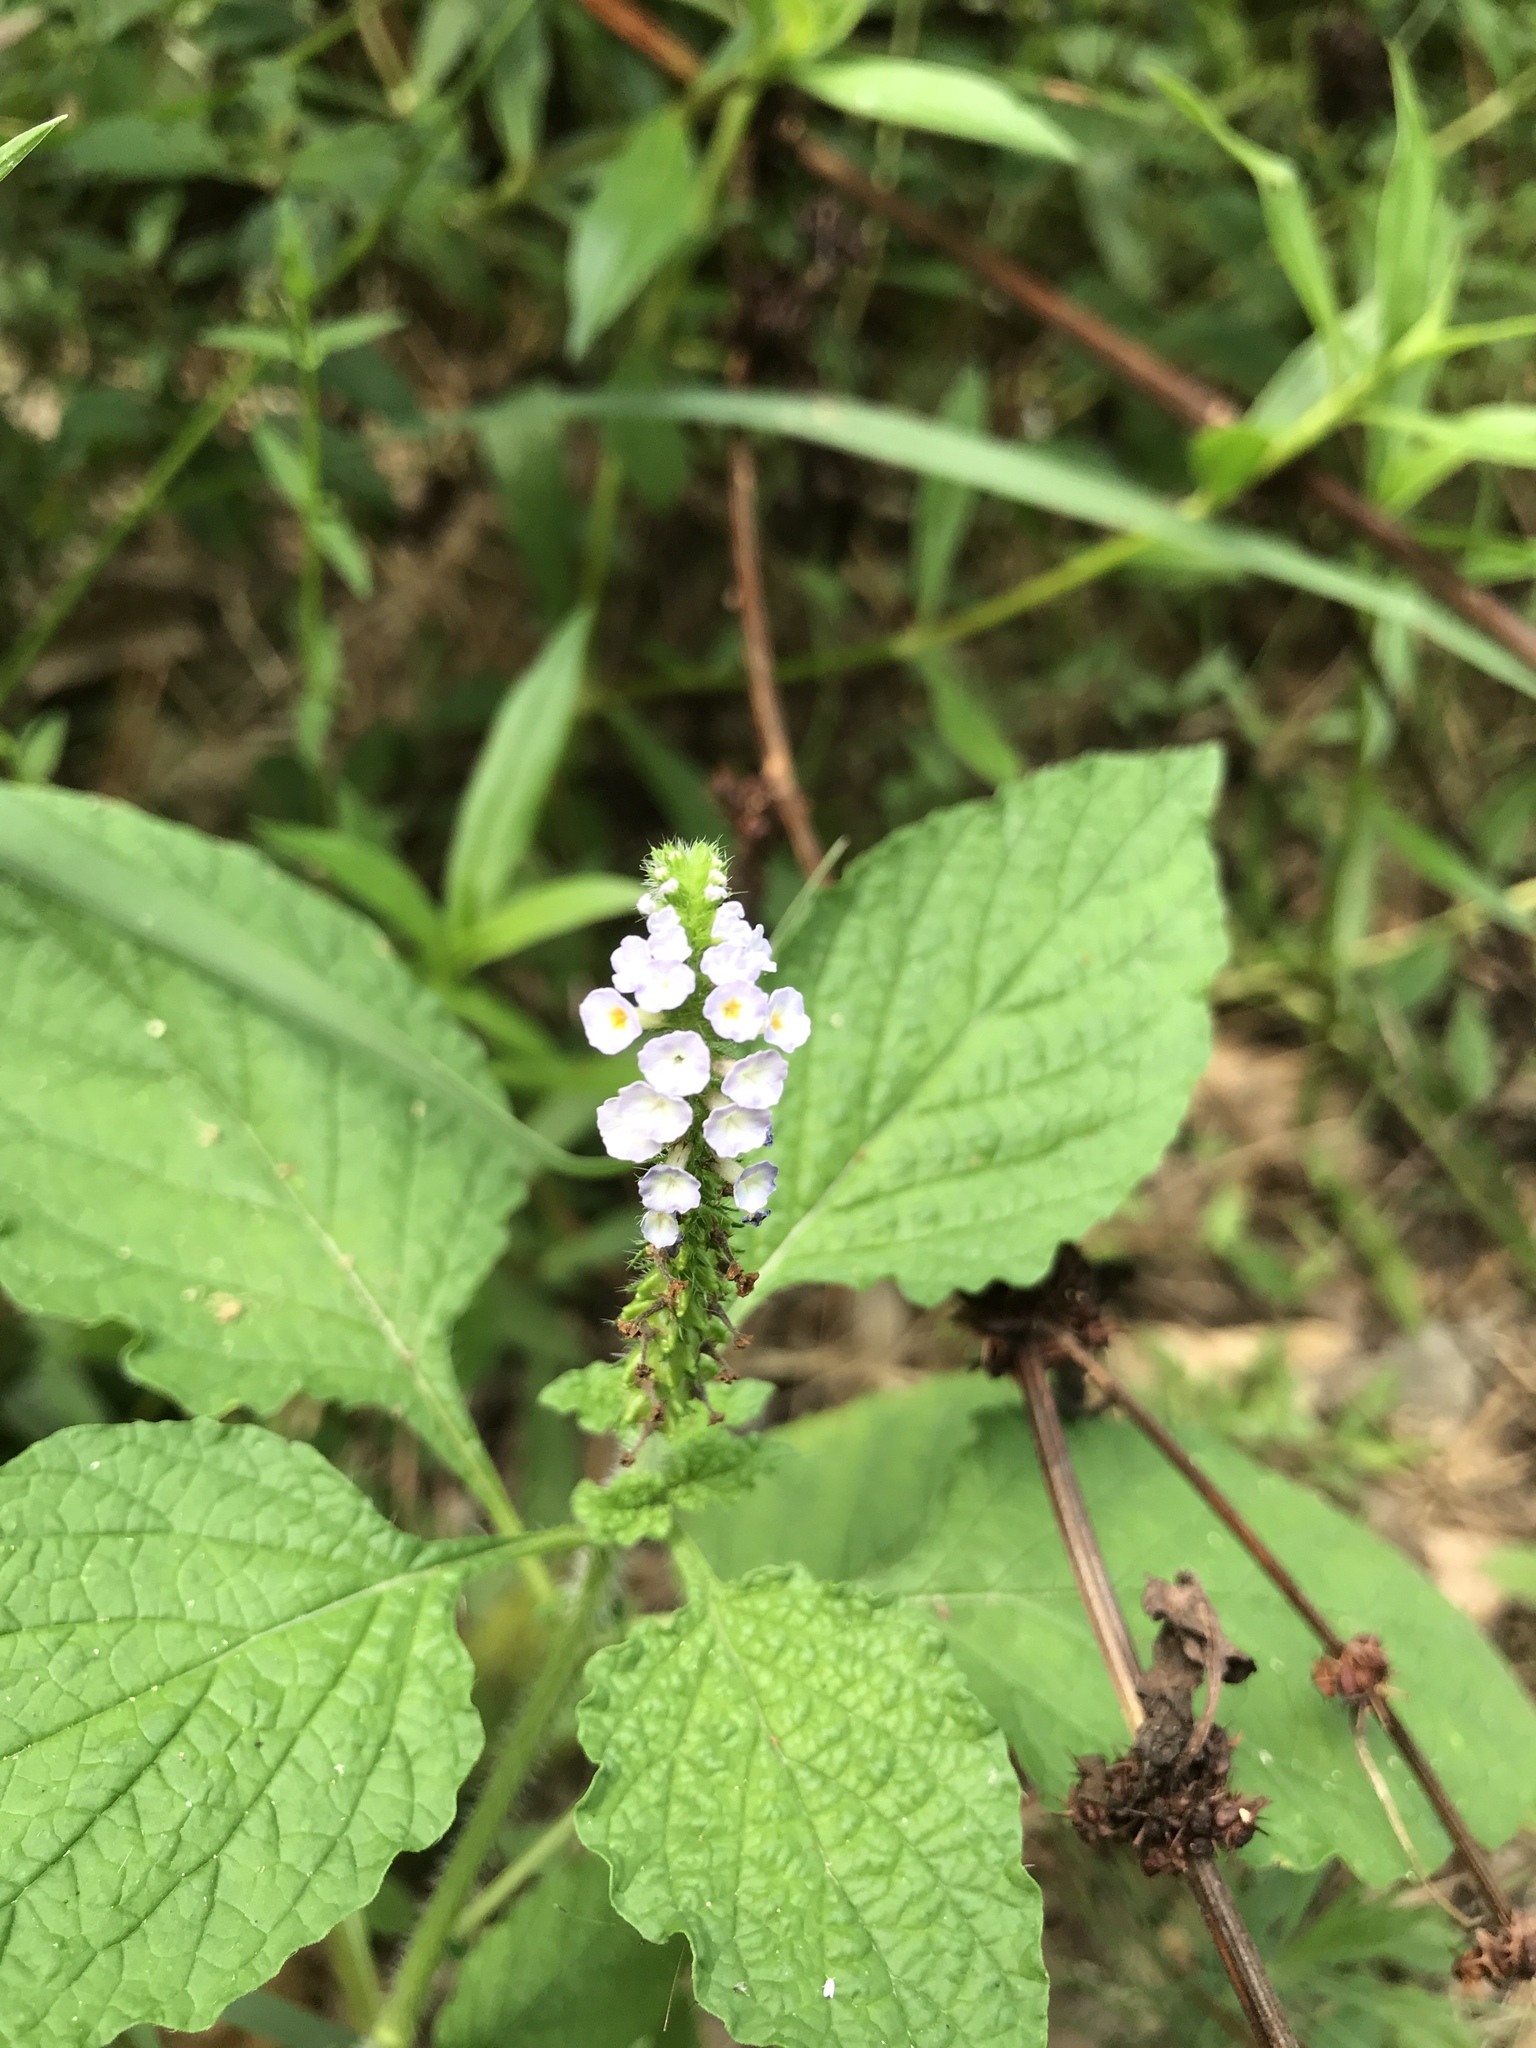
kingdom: Plantae
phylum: Tracheophyta
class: Magnoliopsida
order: Boraginales
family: Heliotropiaceae
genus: Heliotropium
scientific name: Heliotropium indicum
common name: Indian heliotrope
